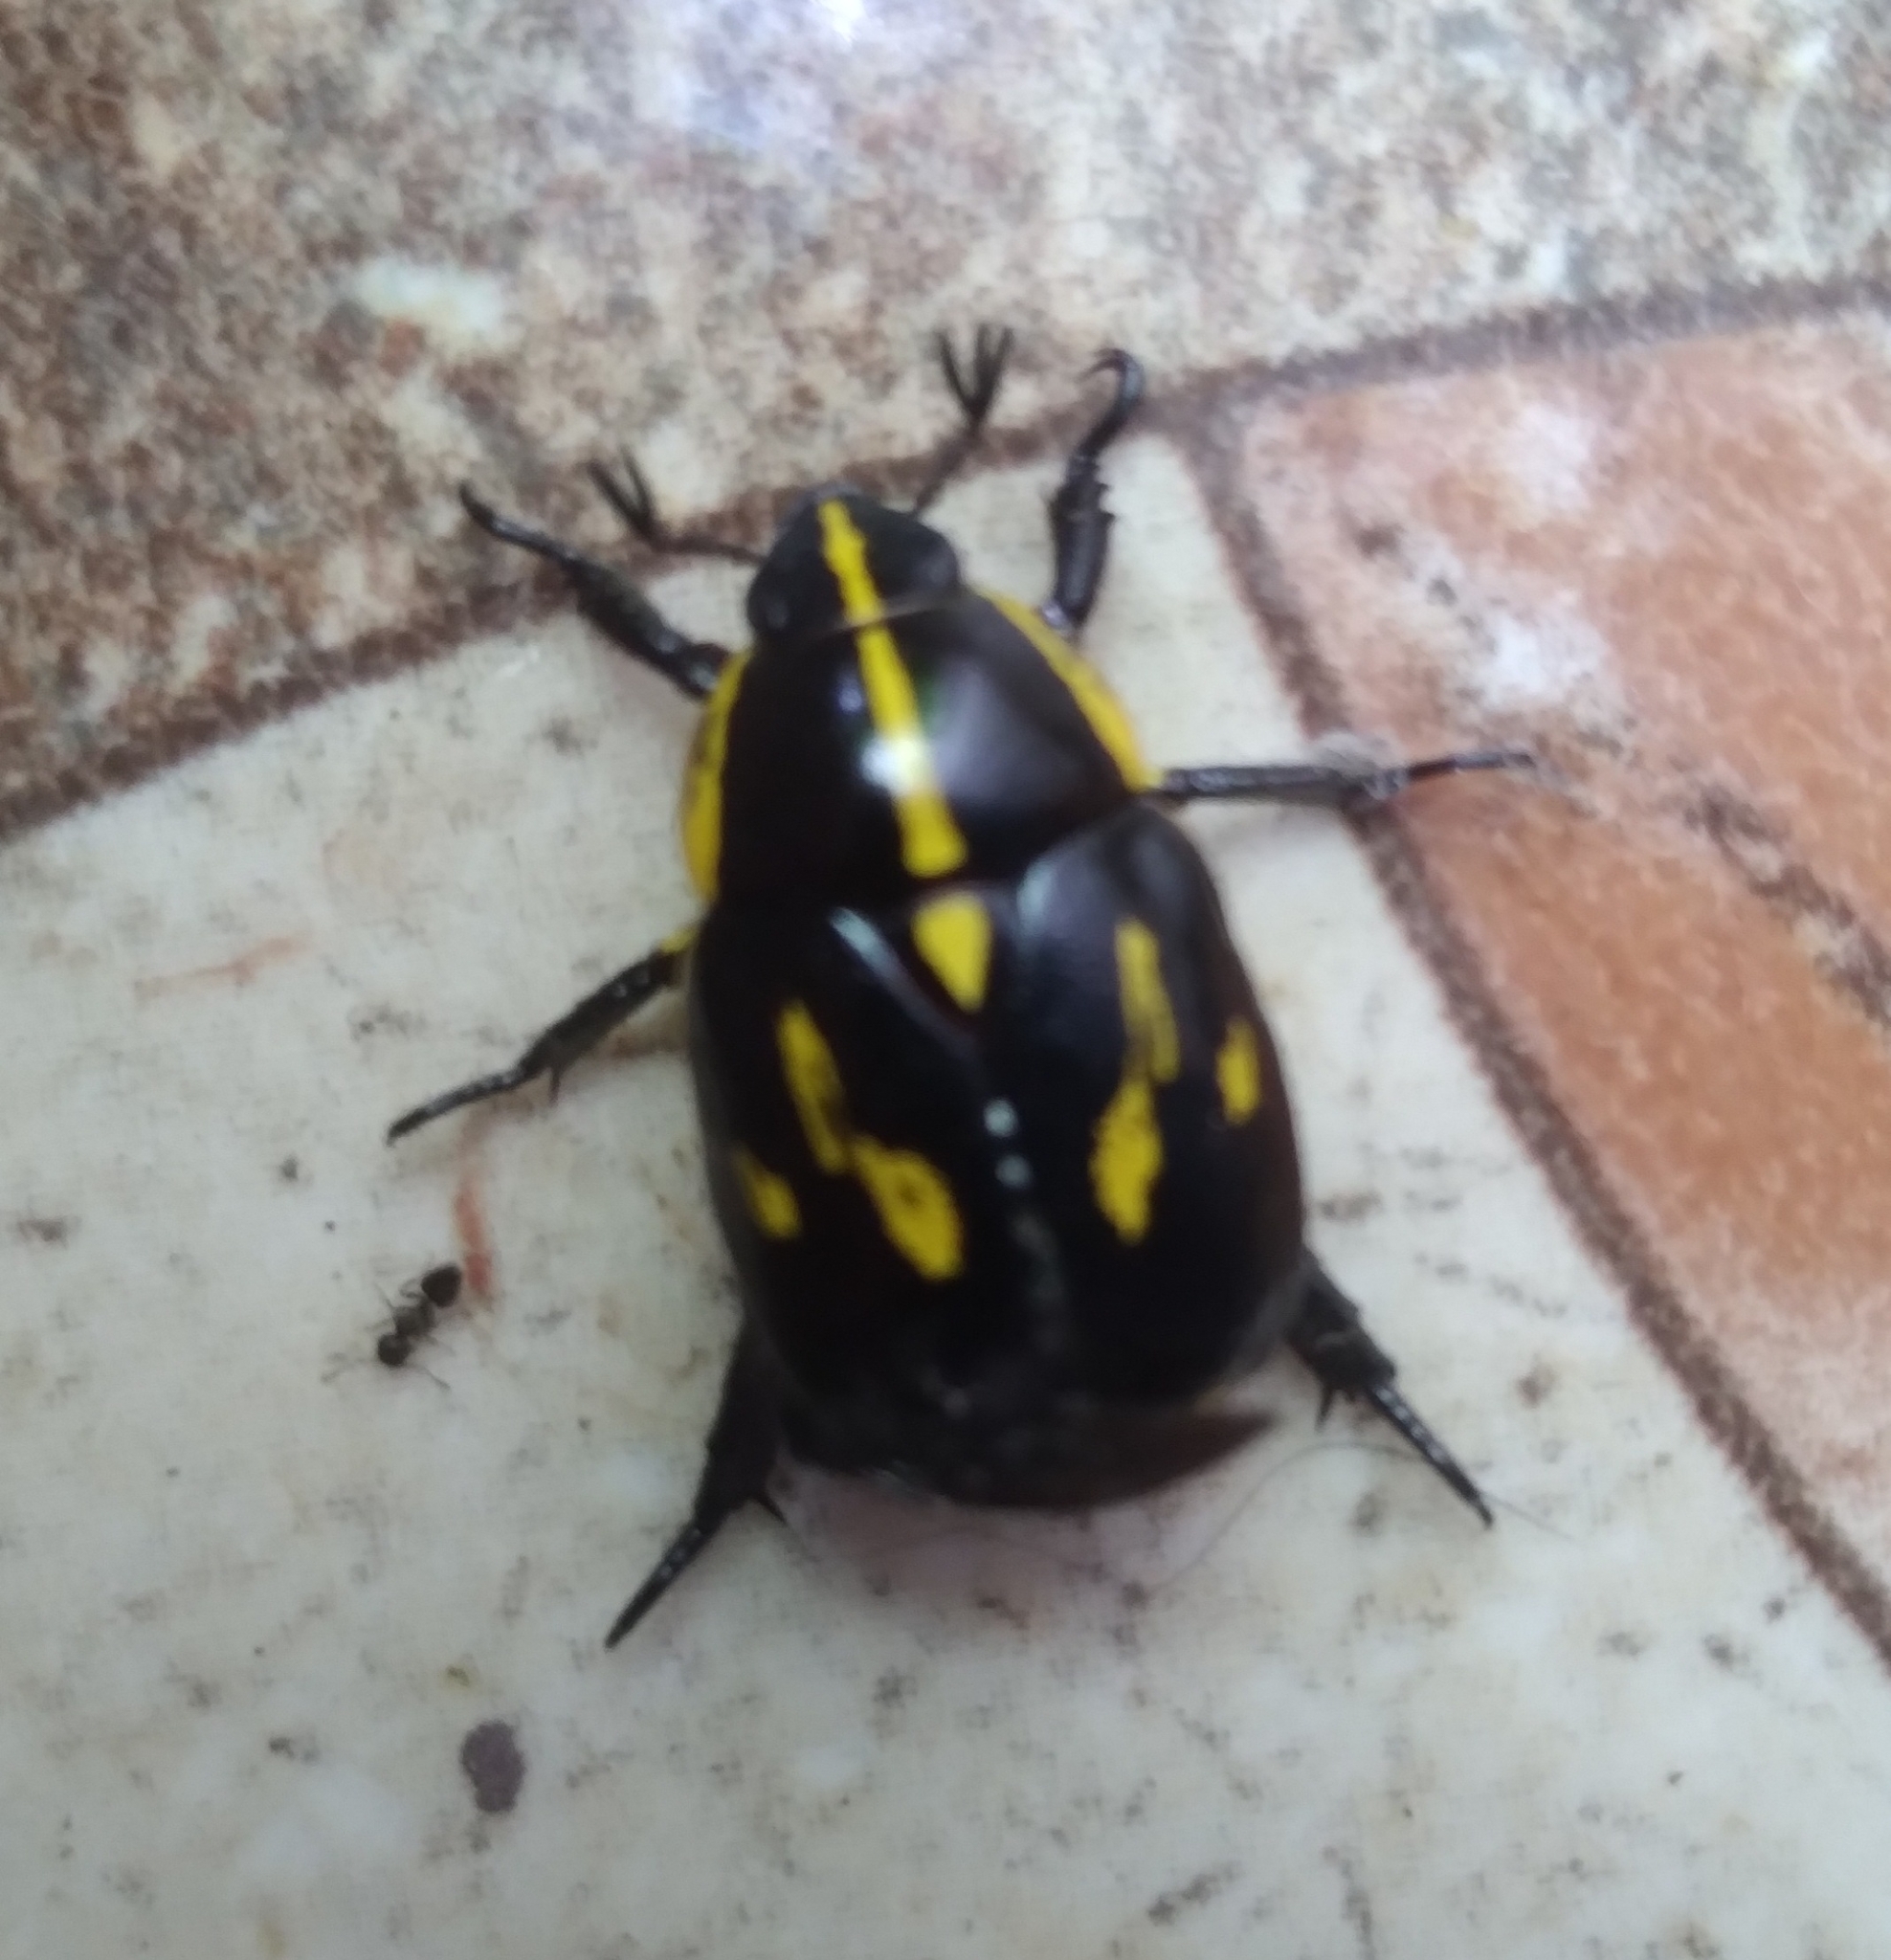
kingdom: Animalia
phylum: Arthropoda
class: Insecta
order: Coleoptera
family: Scarabaeidae
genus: Rutela
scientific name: Rutela lineola
